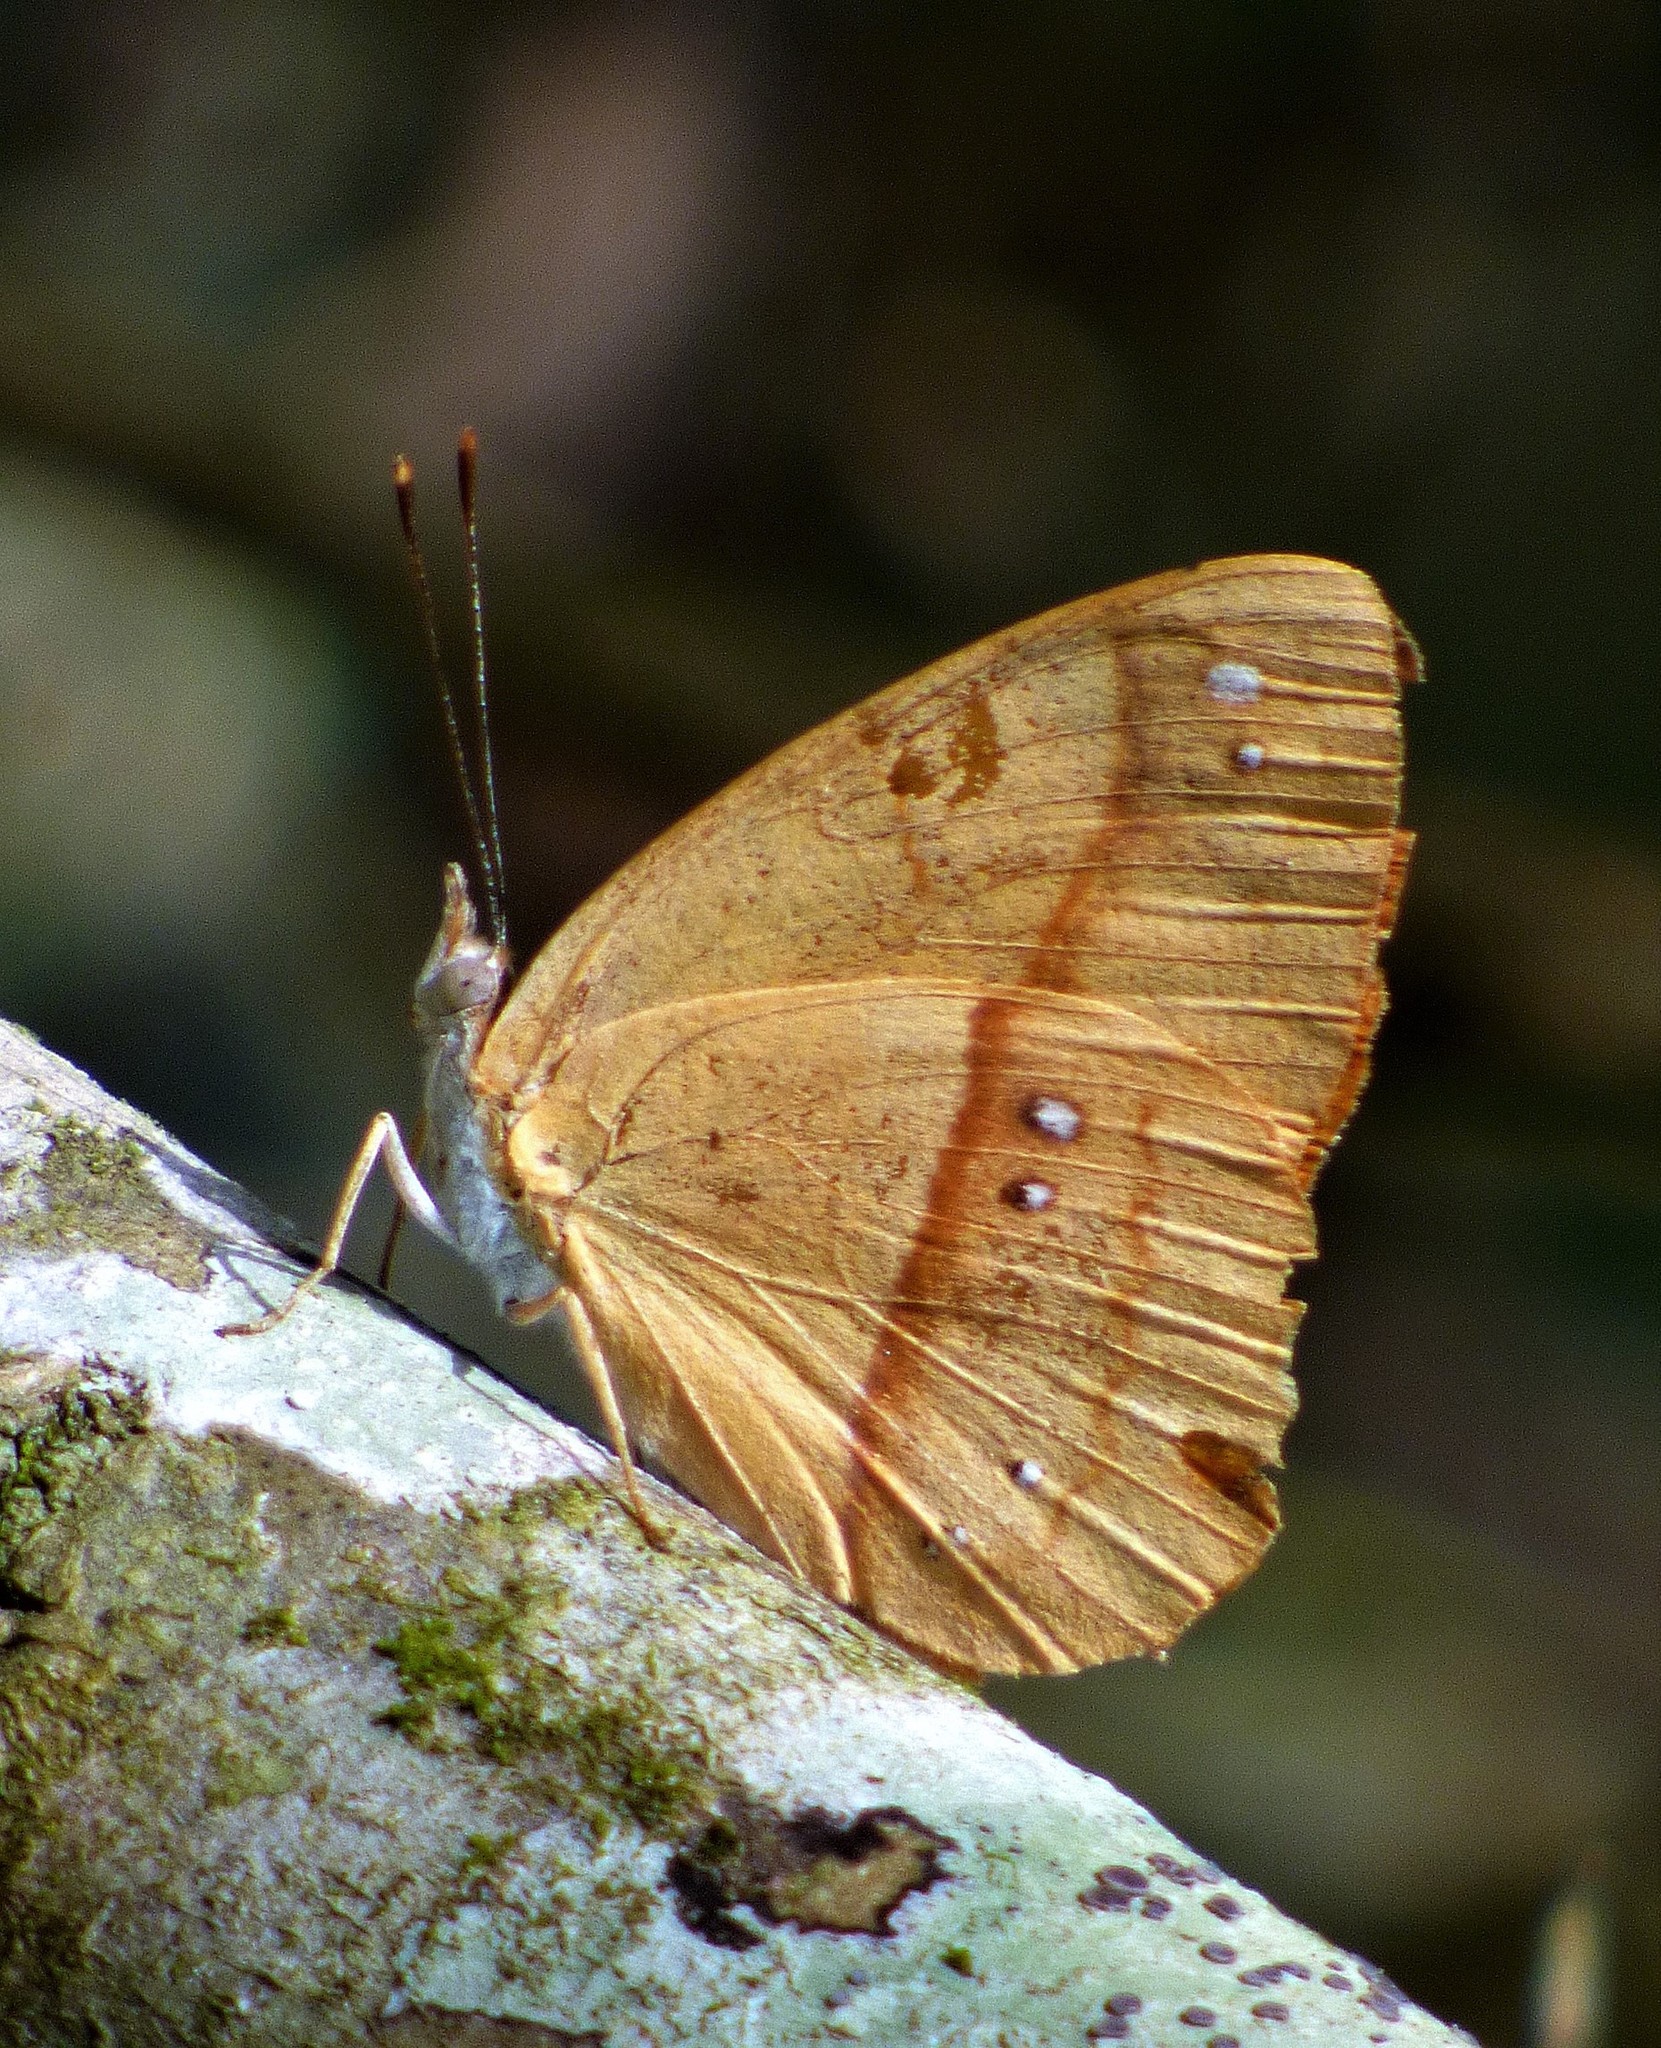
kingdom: Animalia
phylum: Arthropoda
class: Insecta
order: Lepidoptera
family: Nymphalidae
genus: Nica
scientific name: Nica flavilla
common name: Mandarin nica
